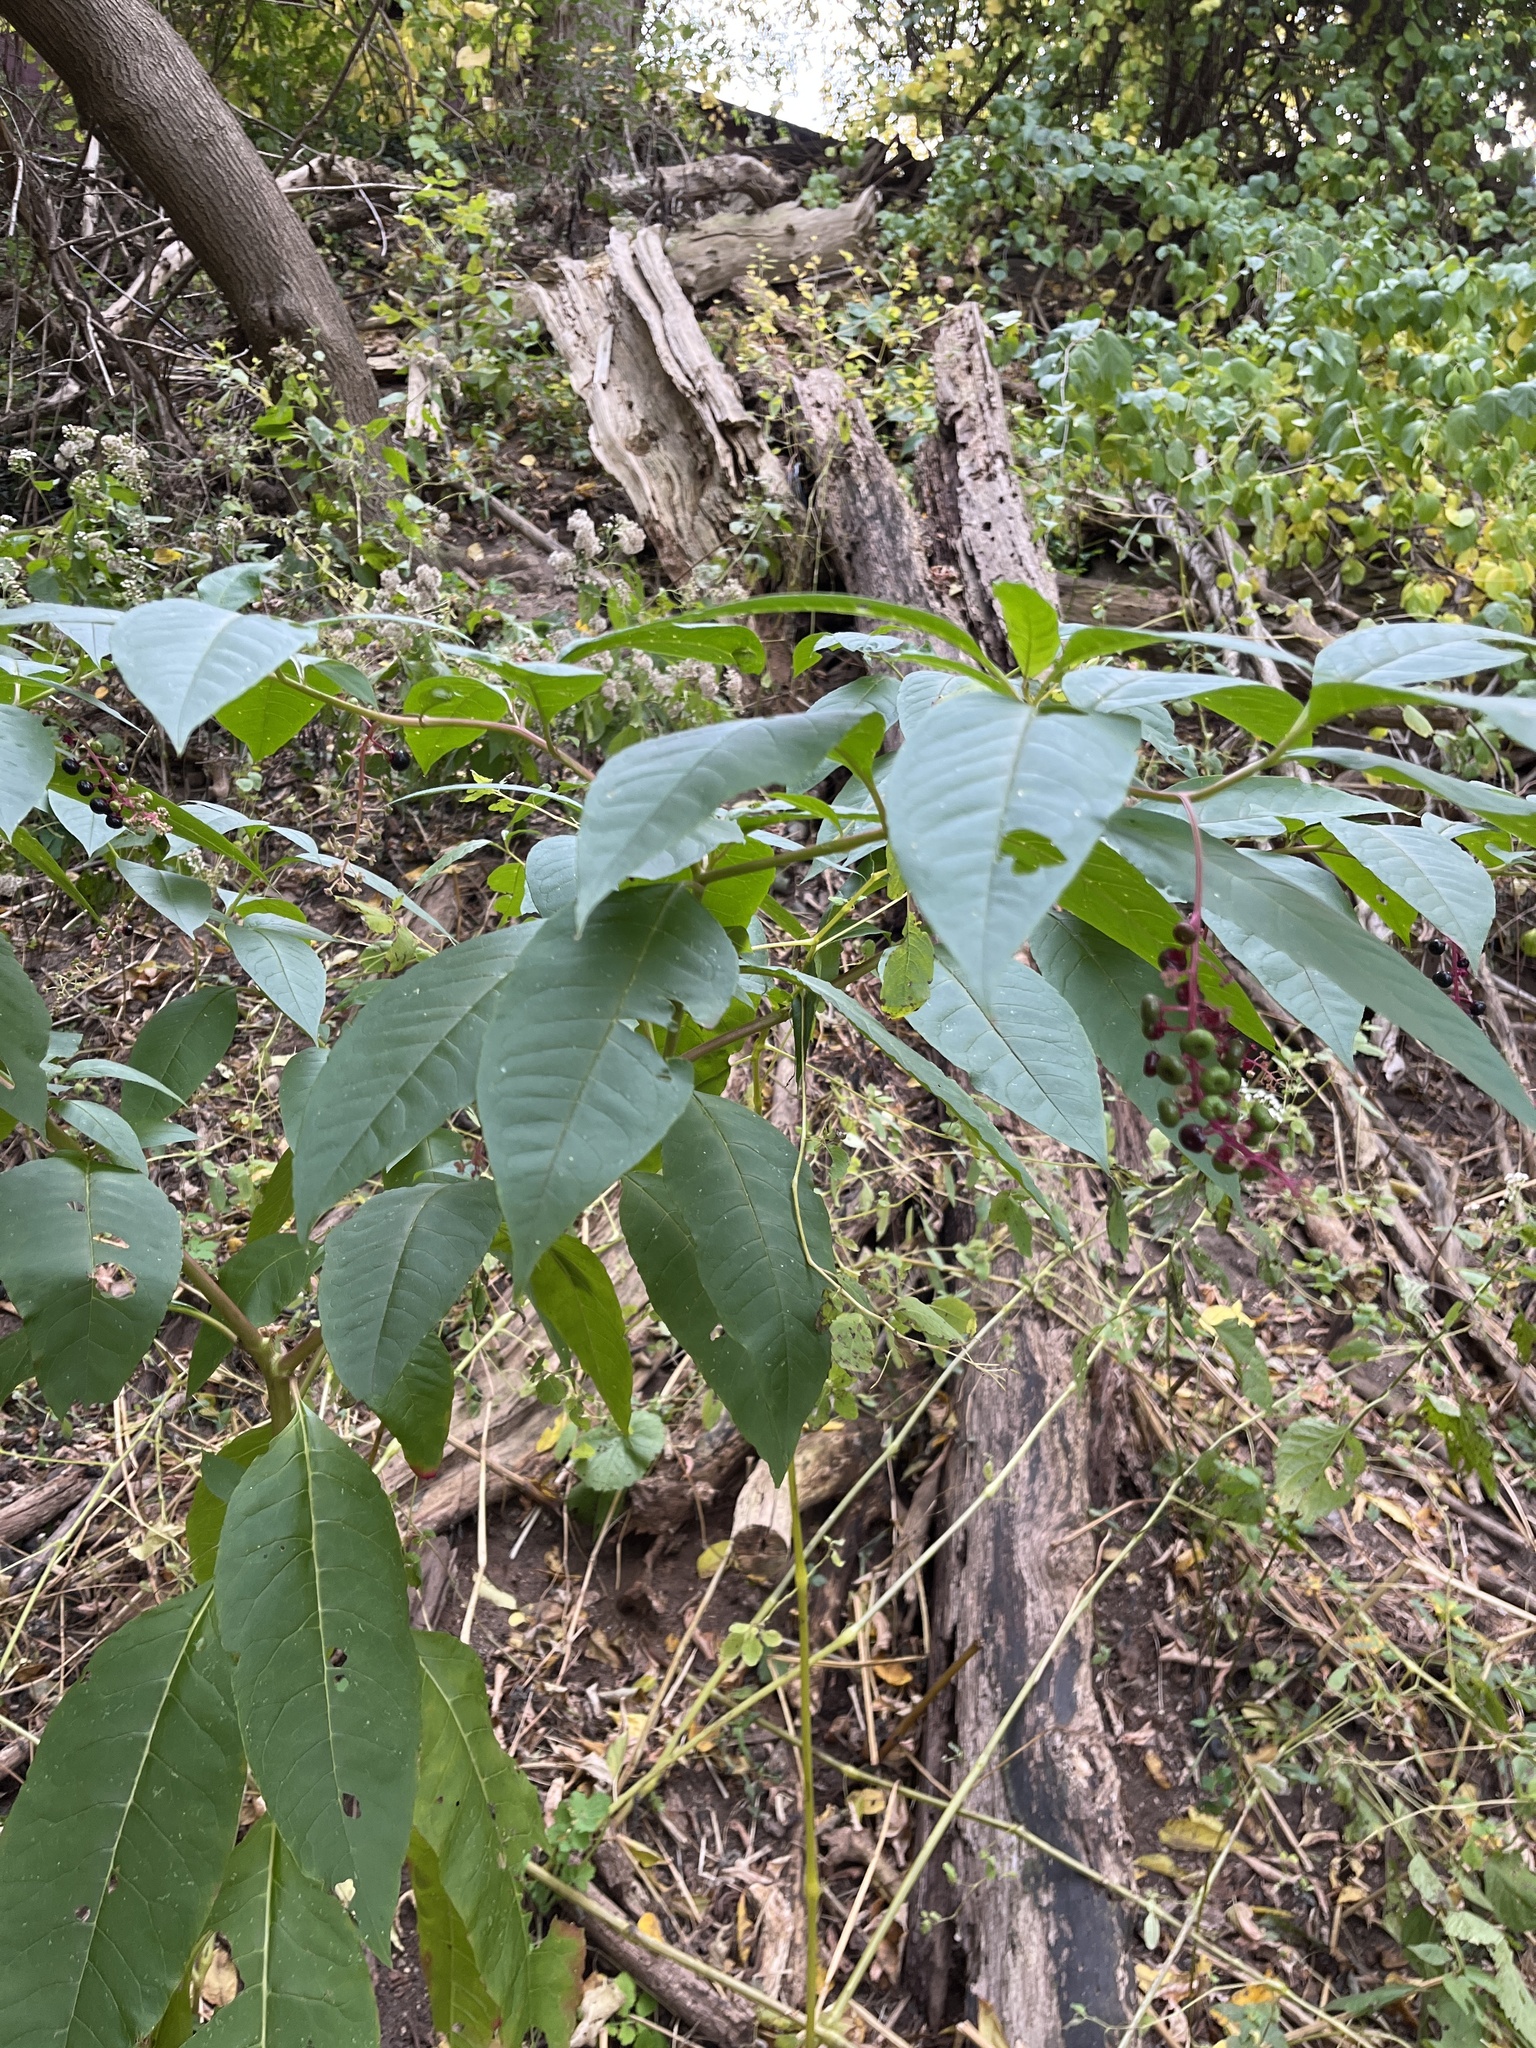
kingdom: Plantae
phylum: Tracheophyta
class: Magnoliopsida
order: Caryophyllales
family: Phytolaccaceae
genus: Phytolacca
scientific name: Phytolacca americana
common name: American pokeweed
